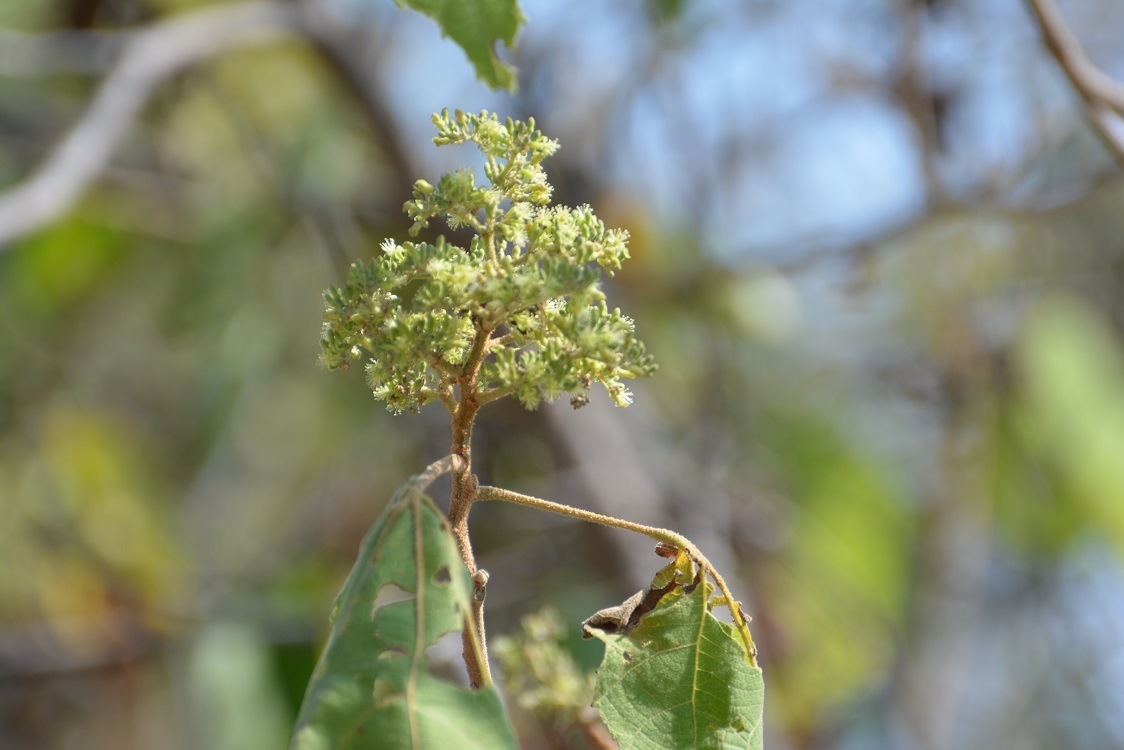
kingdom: Plantae
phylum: Tracheophyta
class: Magnoliopsida
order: Malvales
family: Malvaceae
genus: Heliocarpus
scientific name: Heliocarpus americanus
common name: White moho
